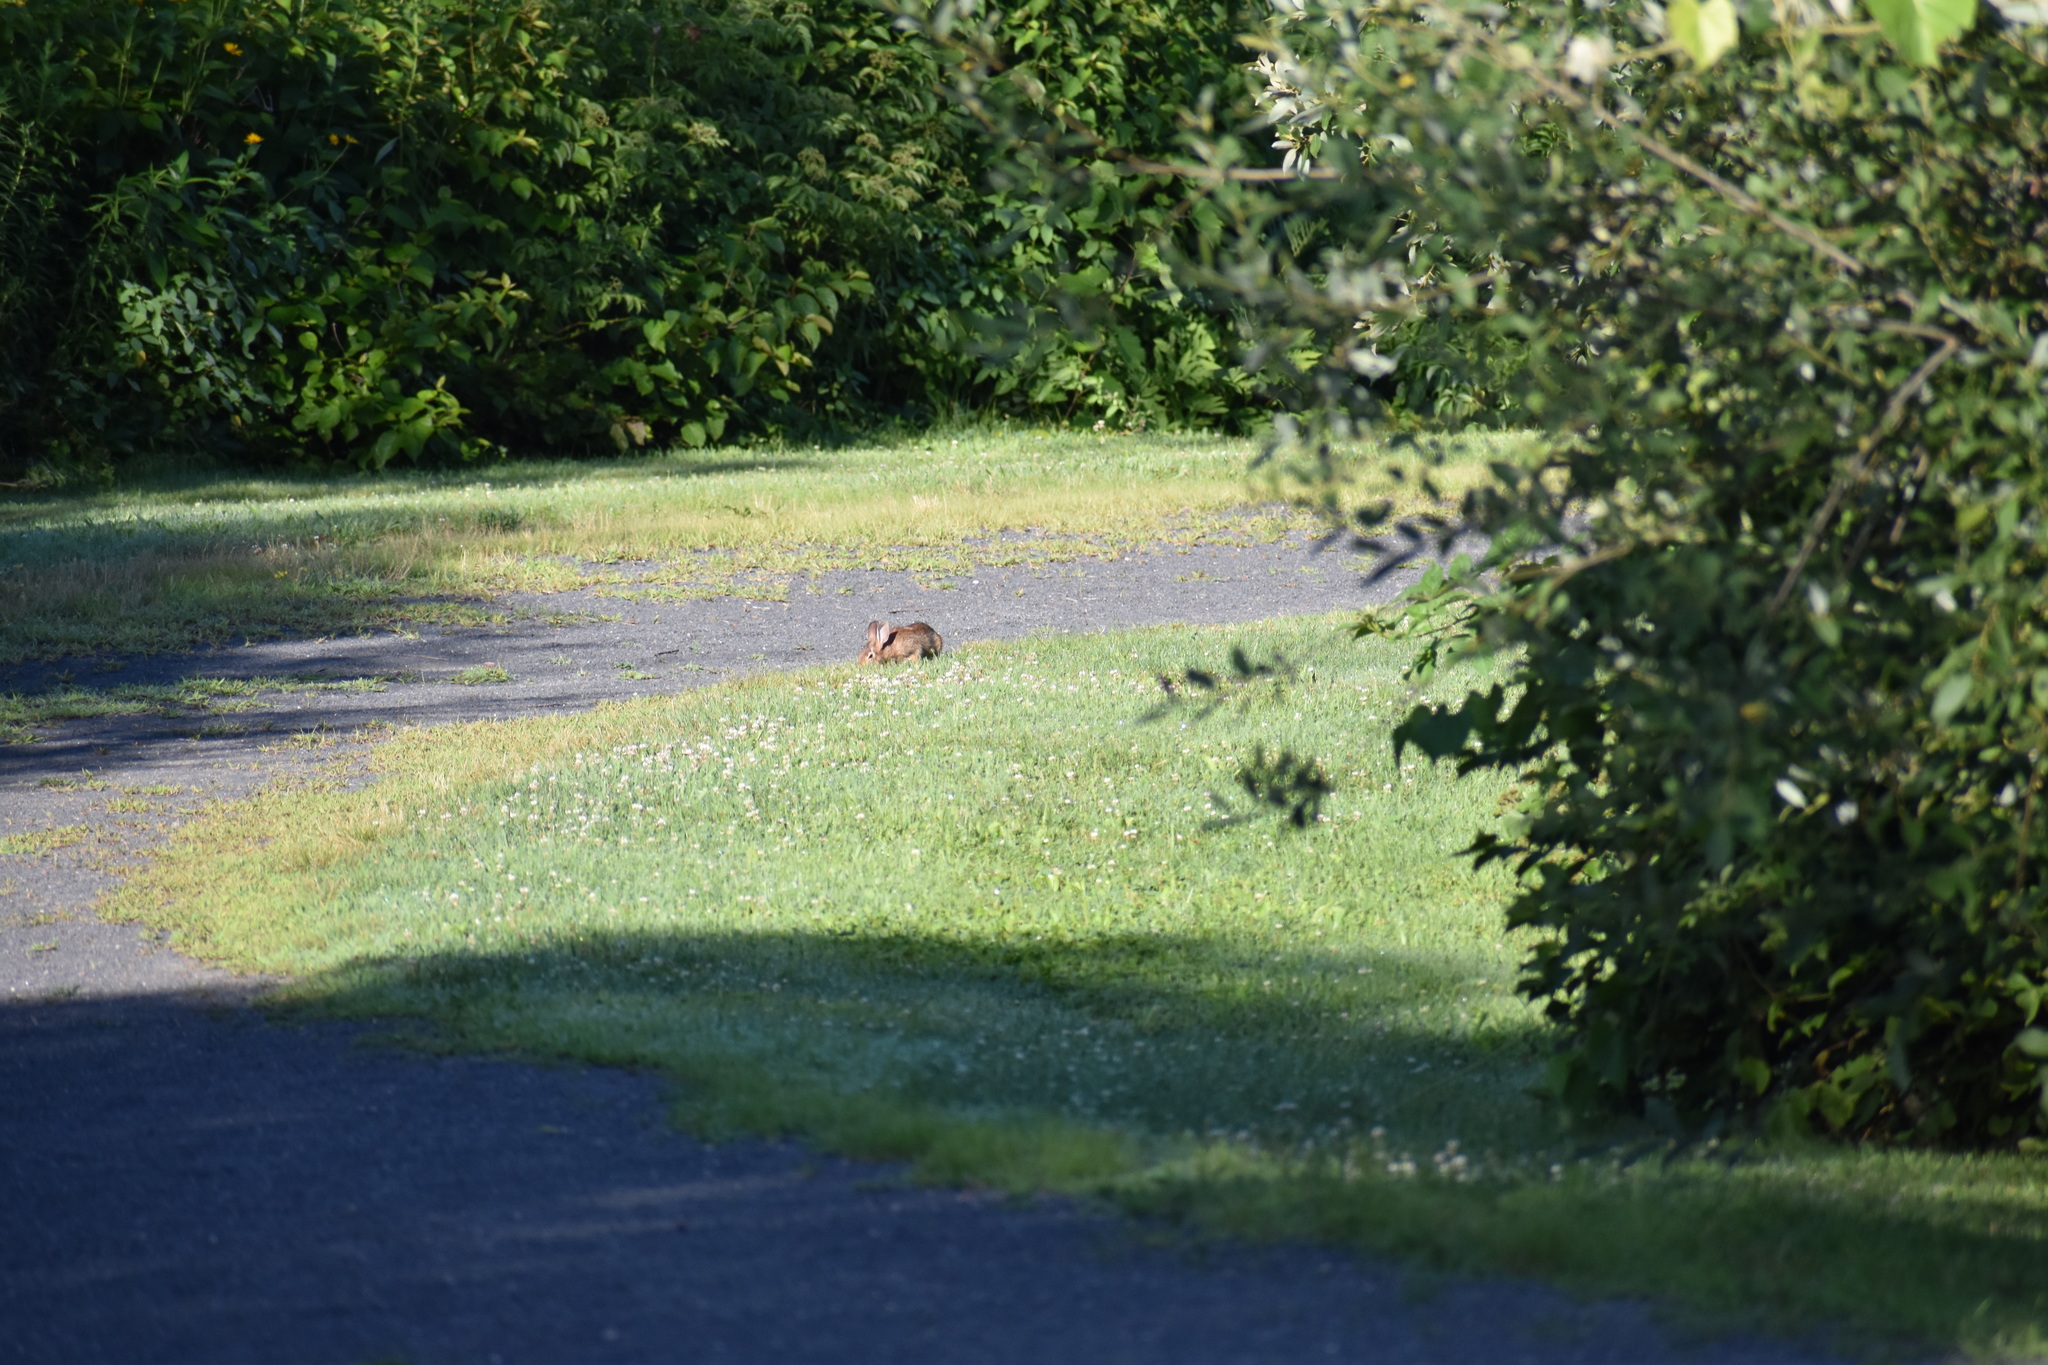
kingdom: Animalia
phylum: Chordata
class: Mammalia
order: Lagomorpha
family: Leporidae
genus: Sylvilagus
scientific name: Sylvilagus floridanus
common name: Eastern cottontail
